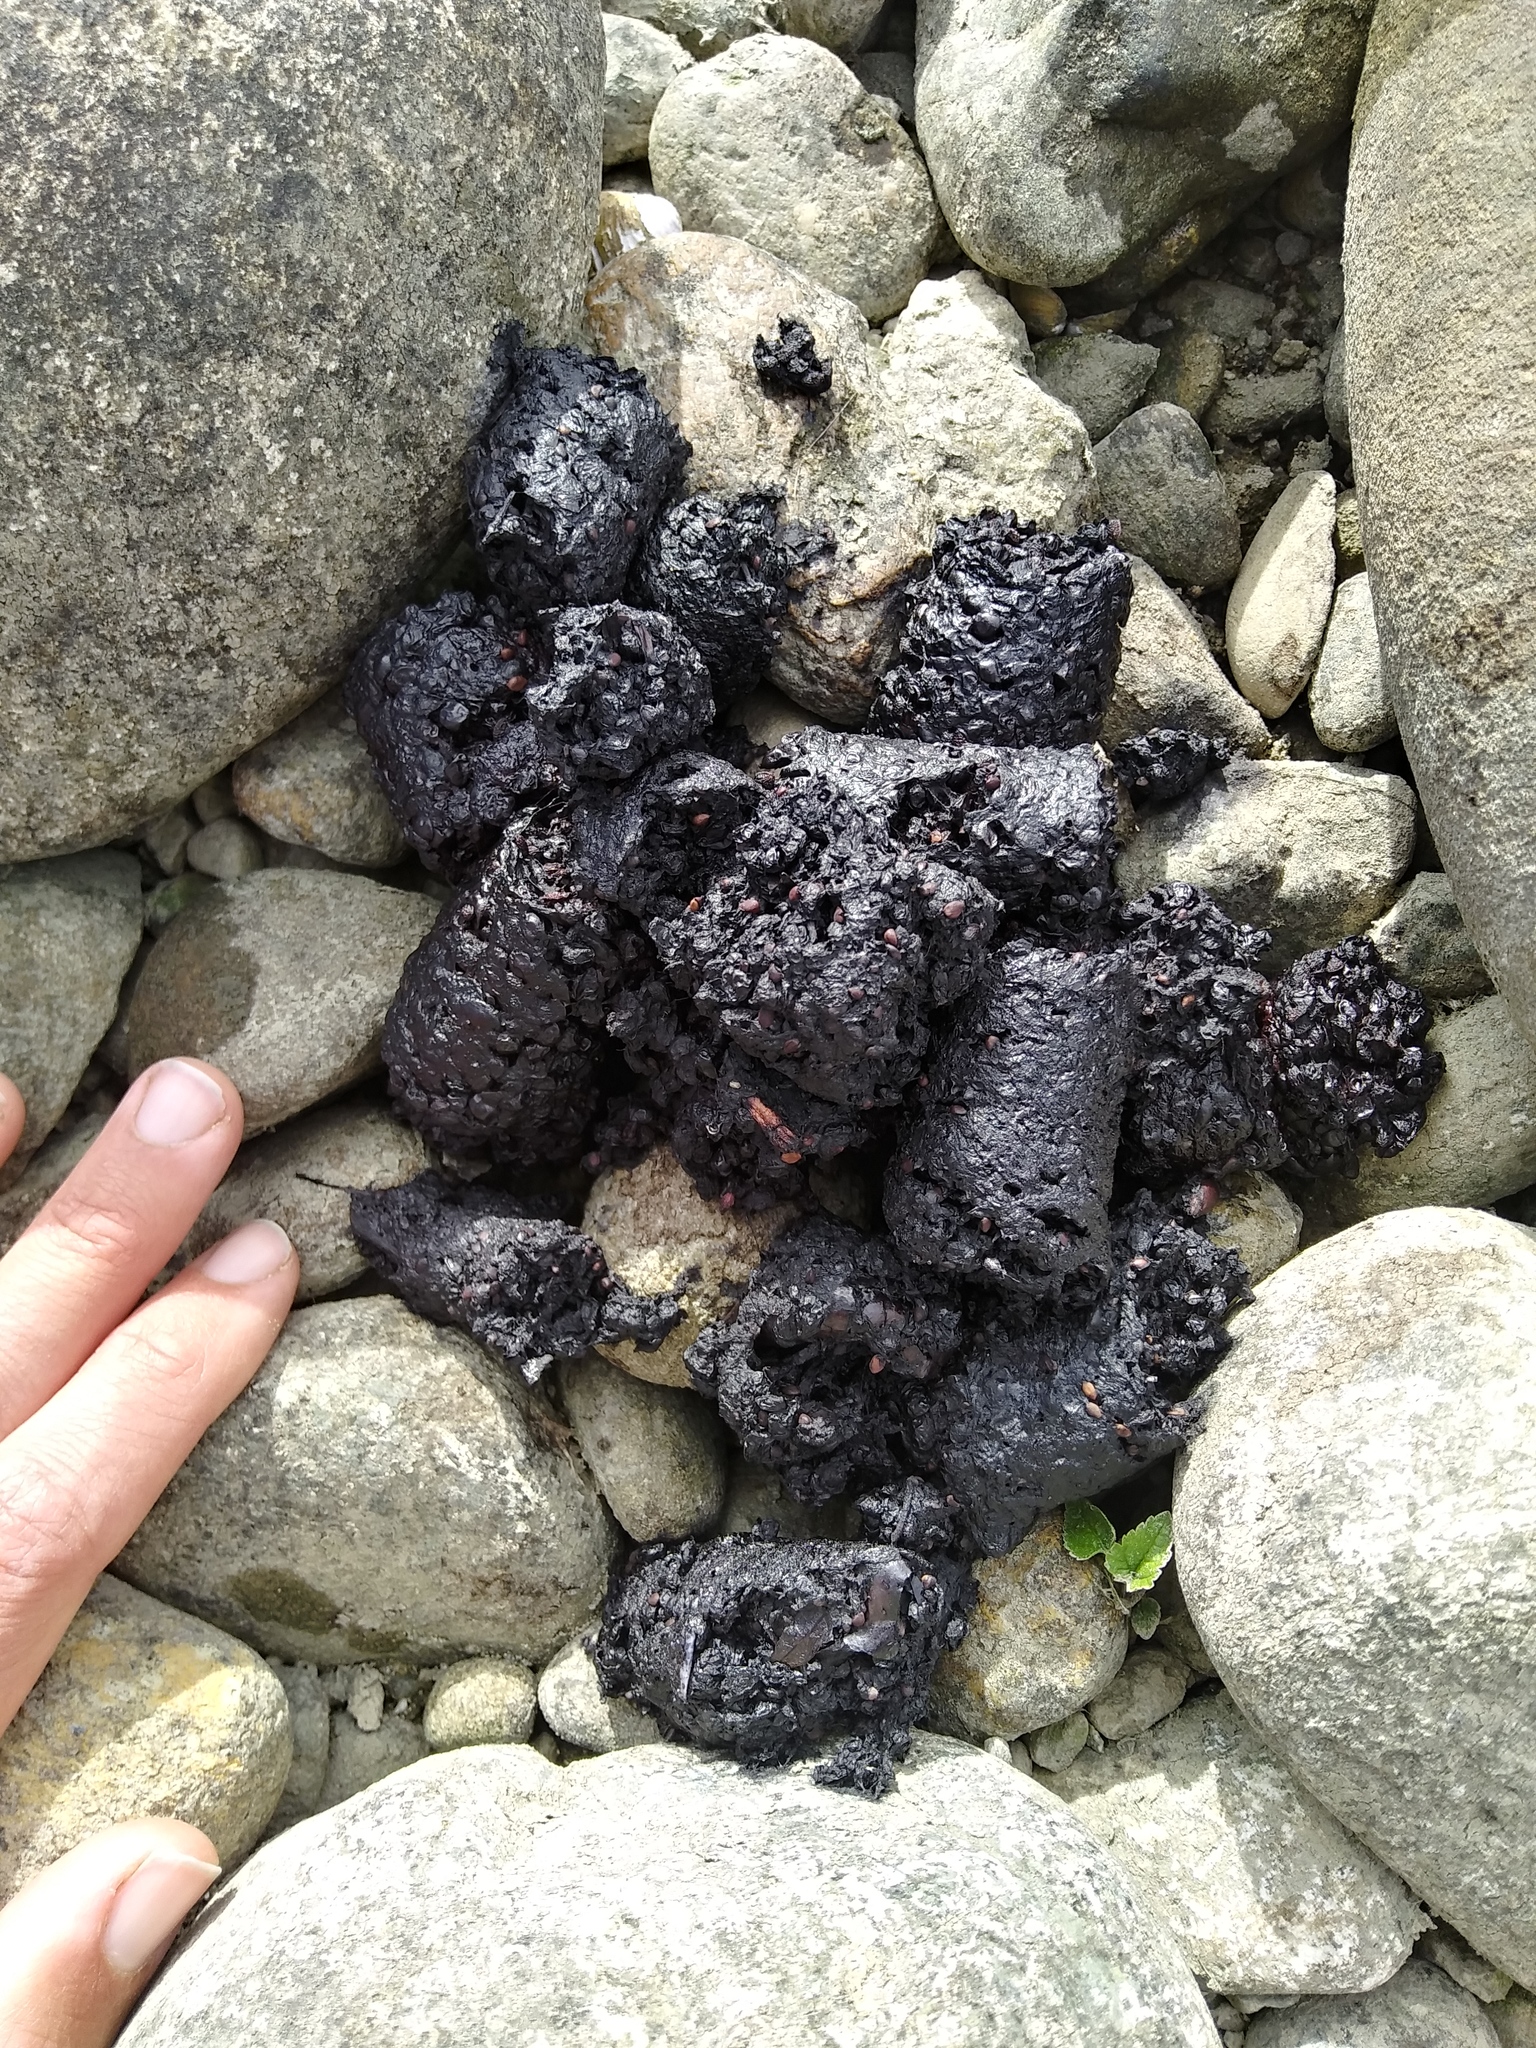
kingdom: Animalia
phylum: Chordata
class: Mammalia
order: Carnivora
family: Ursidae
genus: Ursus
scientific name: Ursus americanus
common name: American black bear
